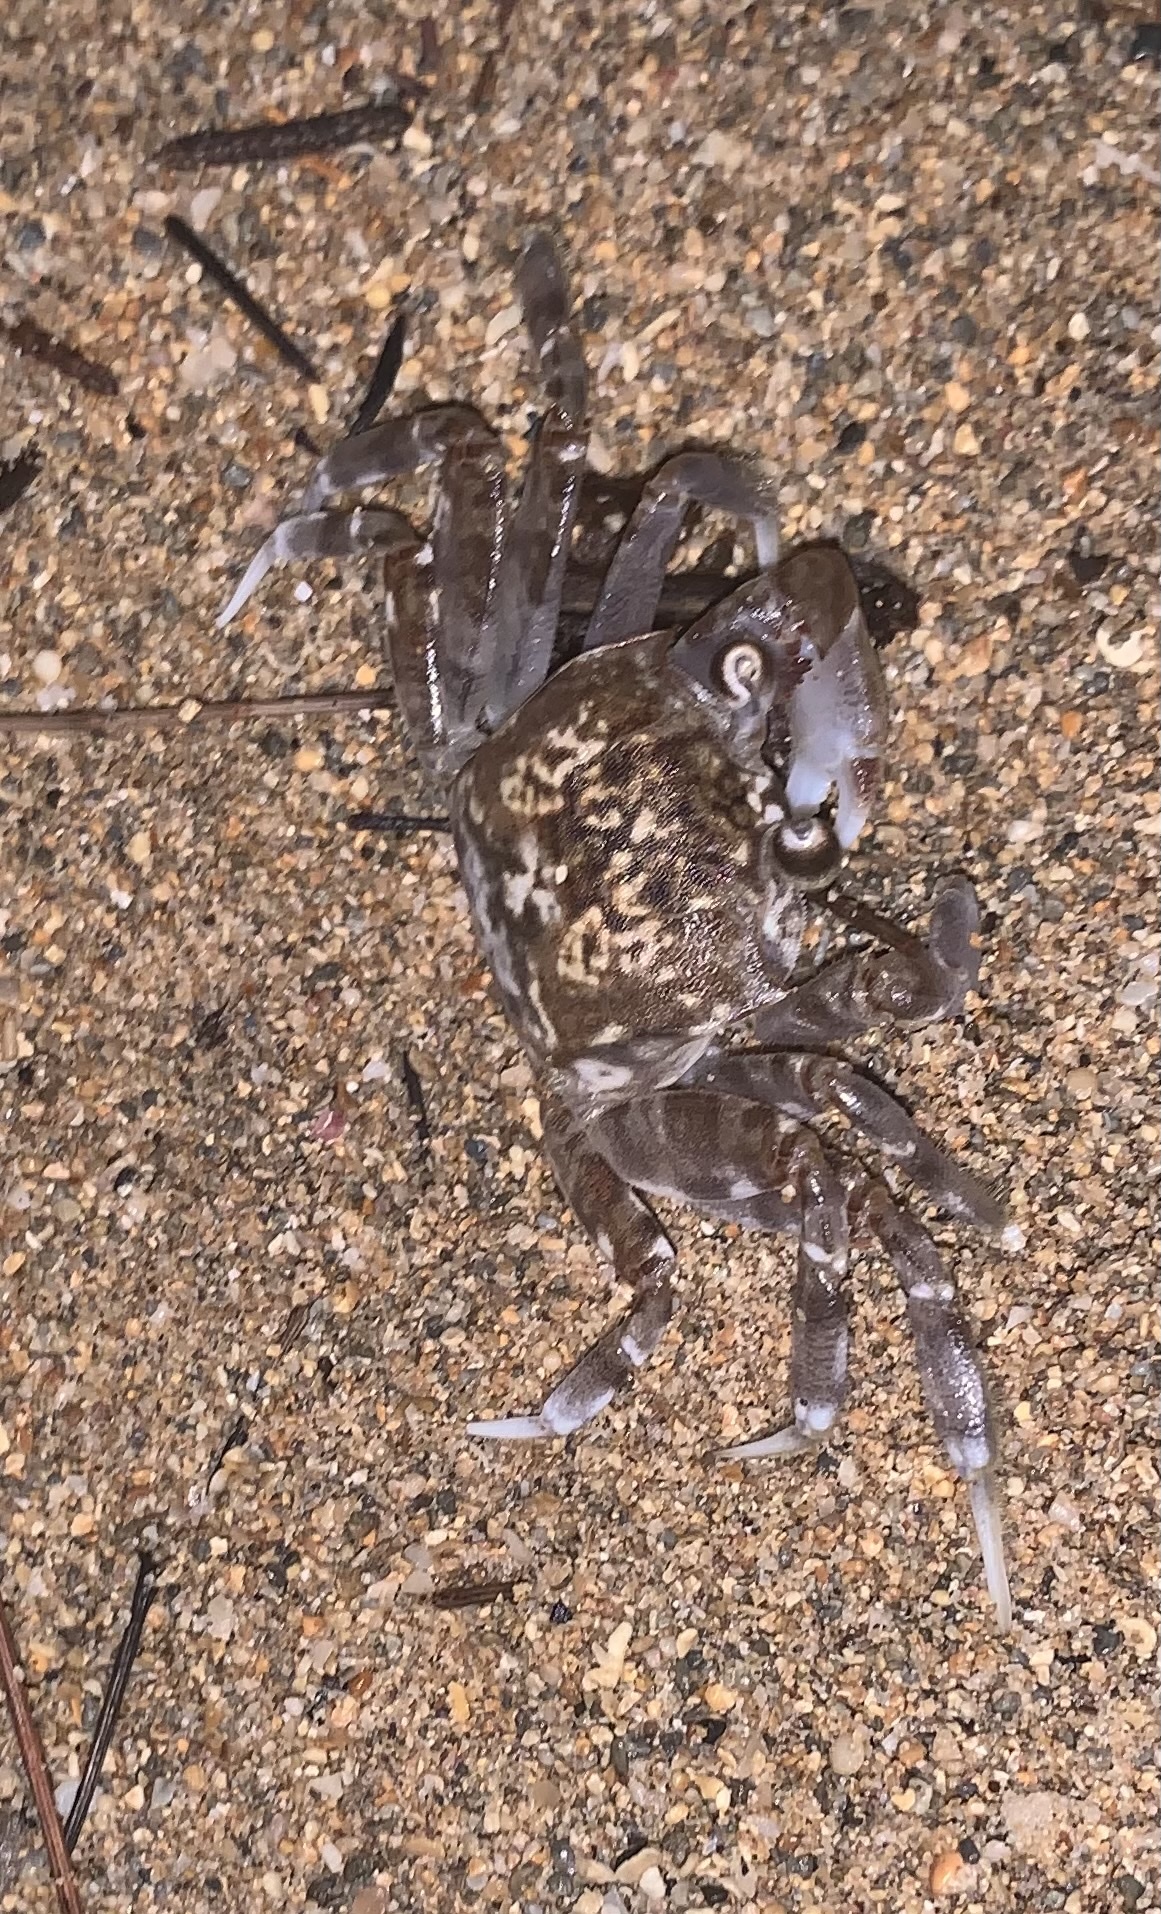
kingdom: Animalia
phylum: Arthropoda
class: Malacostraca
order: Decapoda
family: Ocypodidae
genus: Ocypode
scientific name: Ocypode ceratophthalmus
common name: Indo-pacific ghost crab
